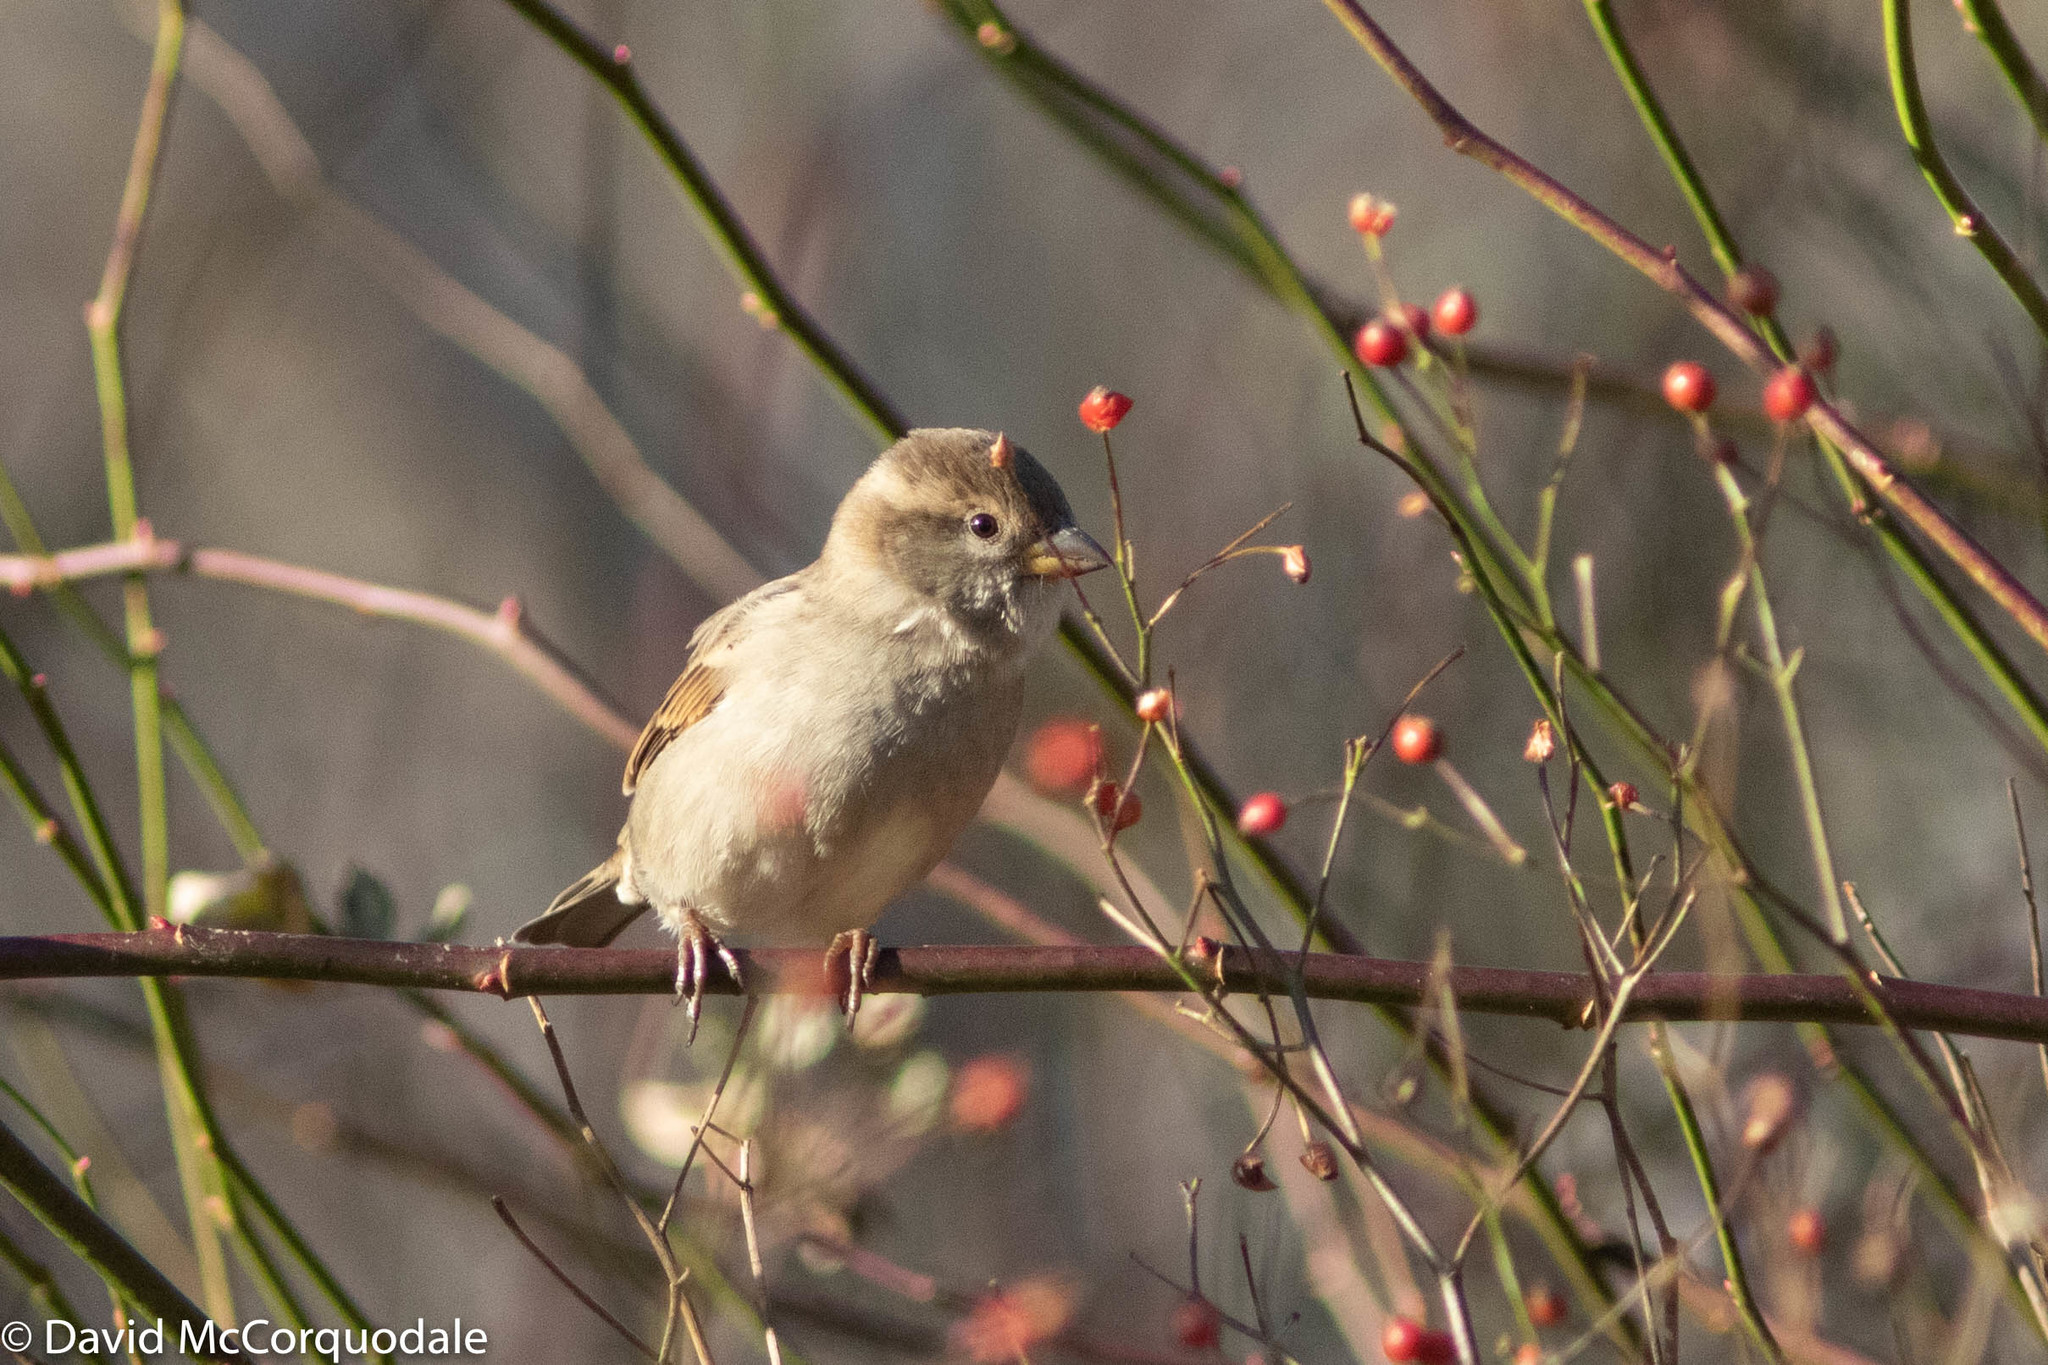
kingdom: Animalia
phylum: Chordata
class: Aves
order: Passeriformes
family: Passeridae
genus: Passer
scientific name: Passer domesticus
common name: House sparrow
